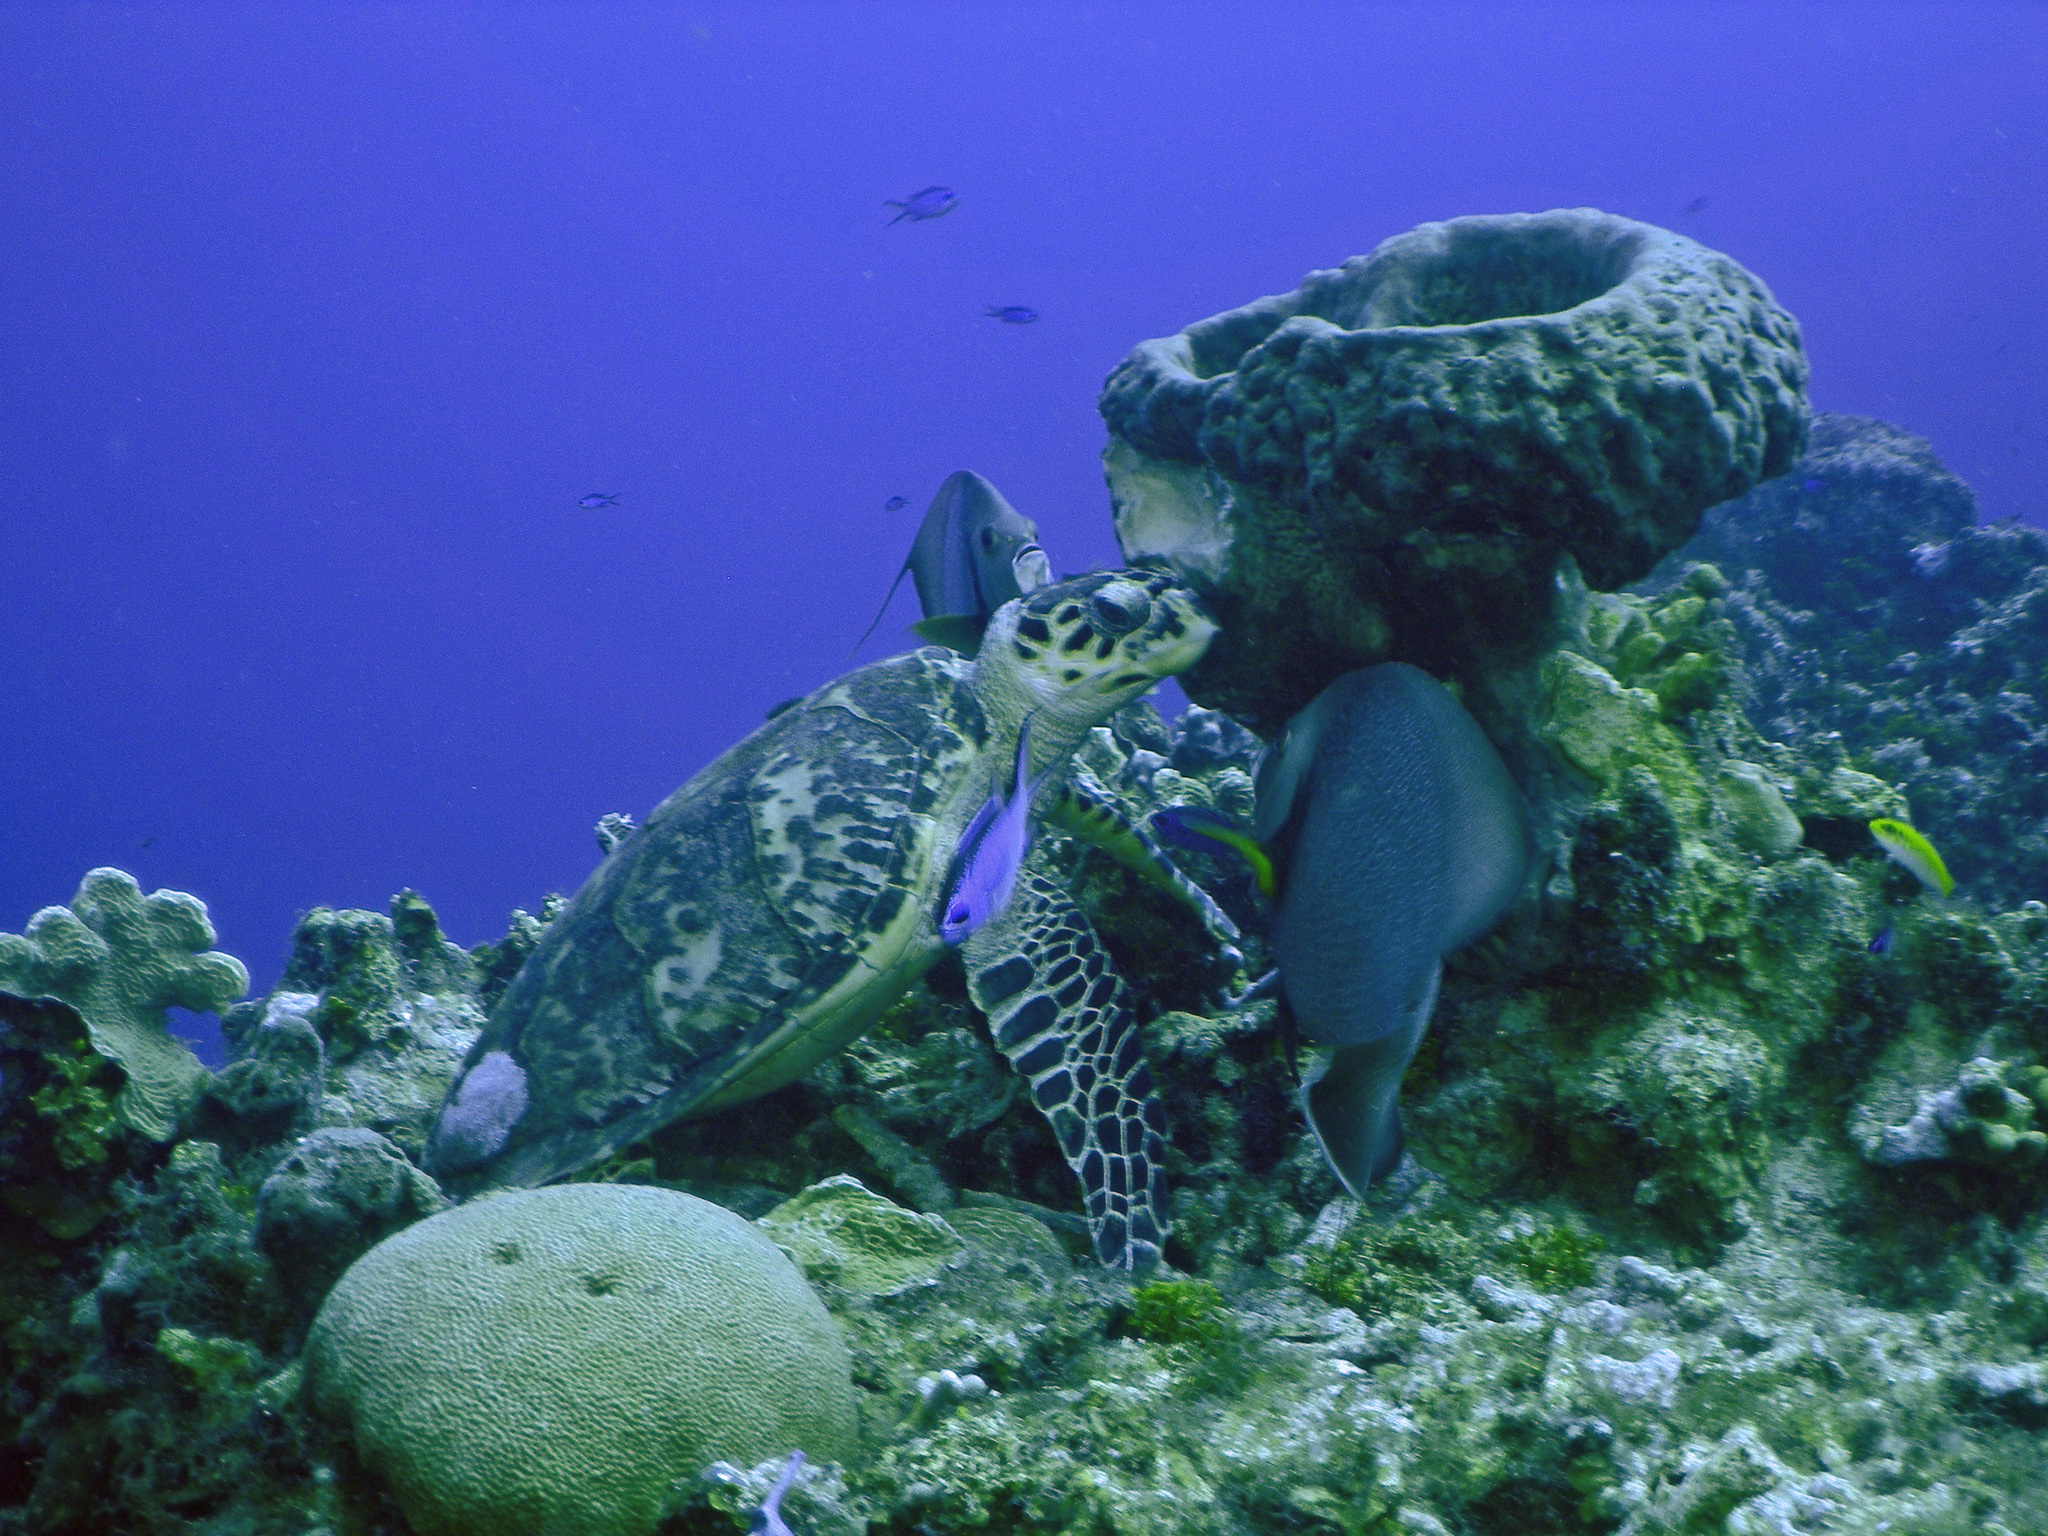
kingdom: Animalia
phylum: Chordata
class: Testudines
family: Cheloniidae
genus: Eretmochelys
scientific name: Eretmochelys imbricata
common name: Hawksbill turtle
